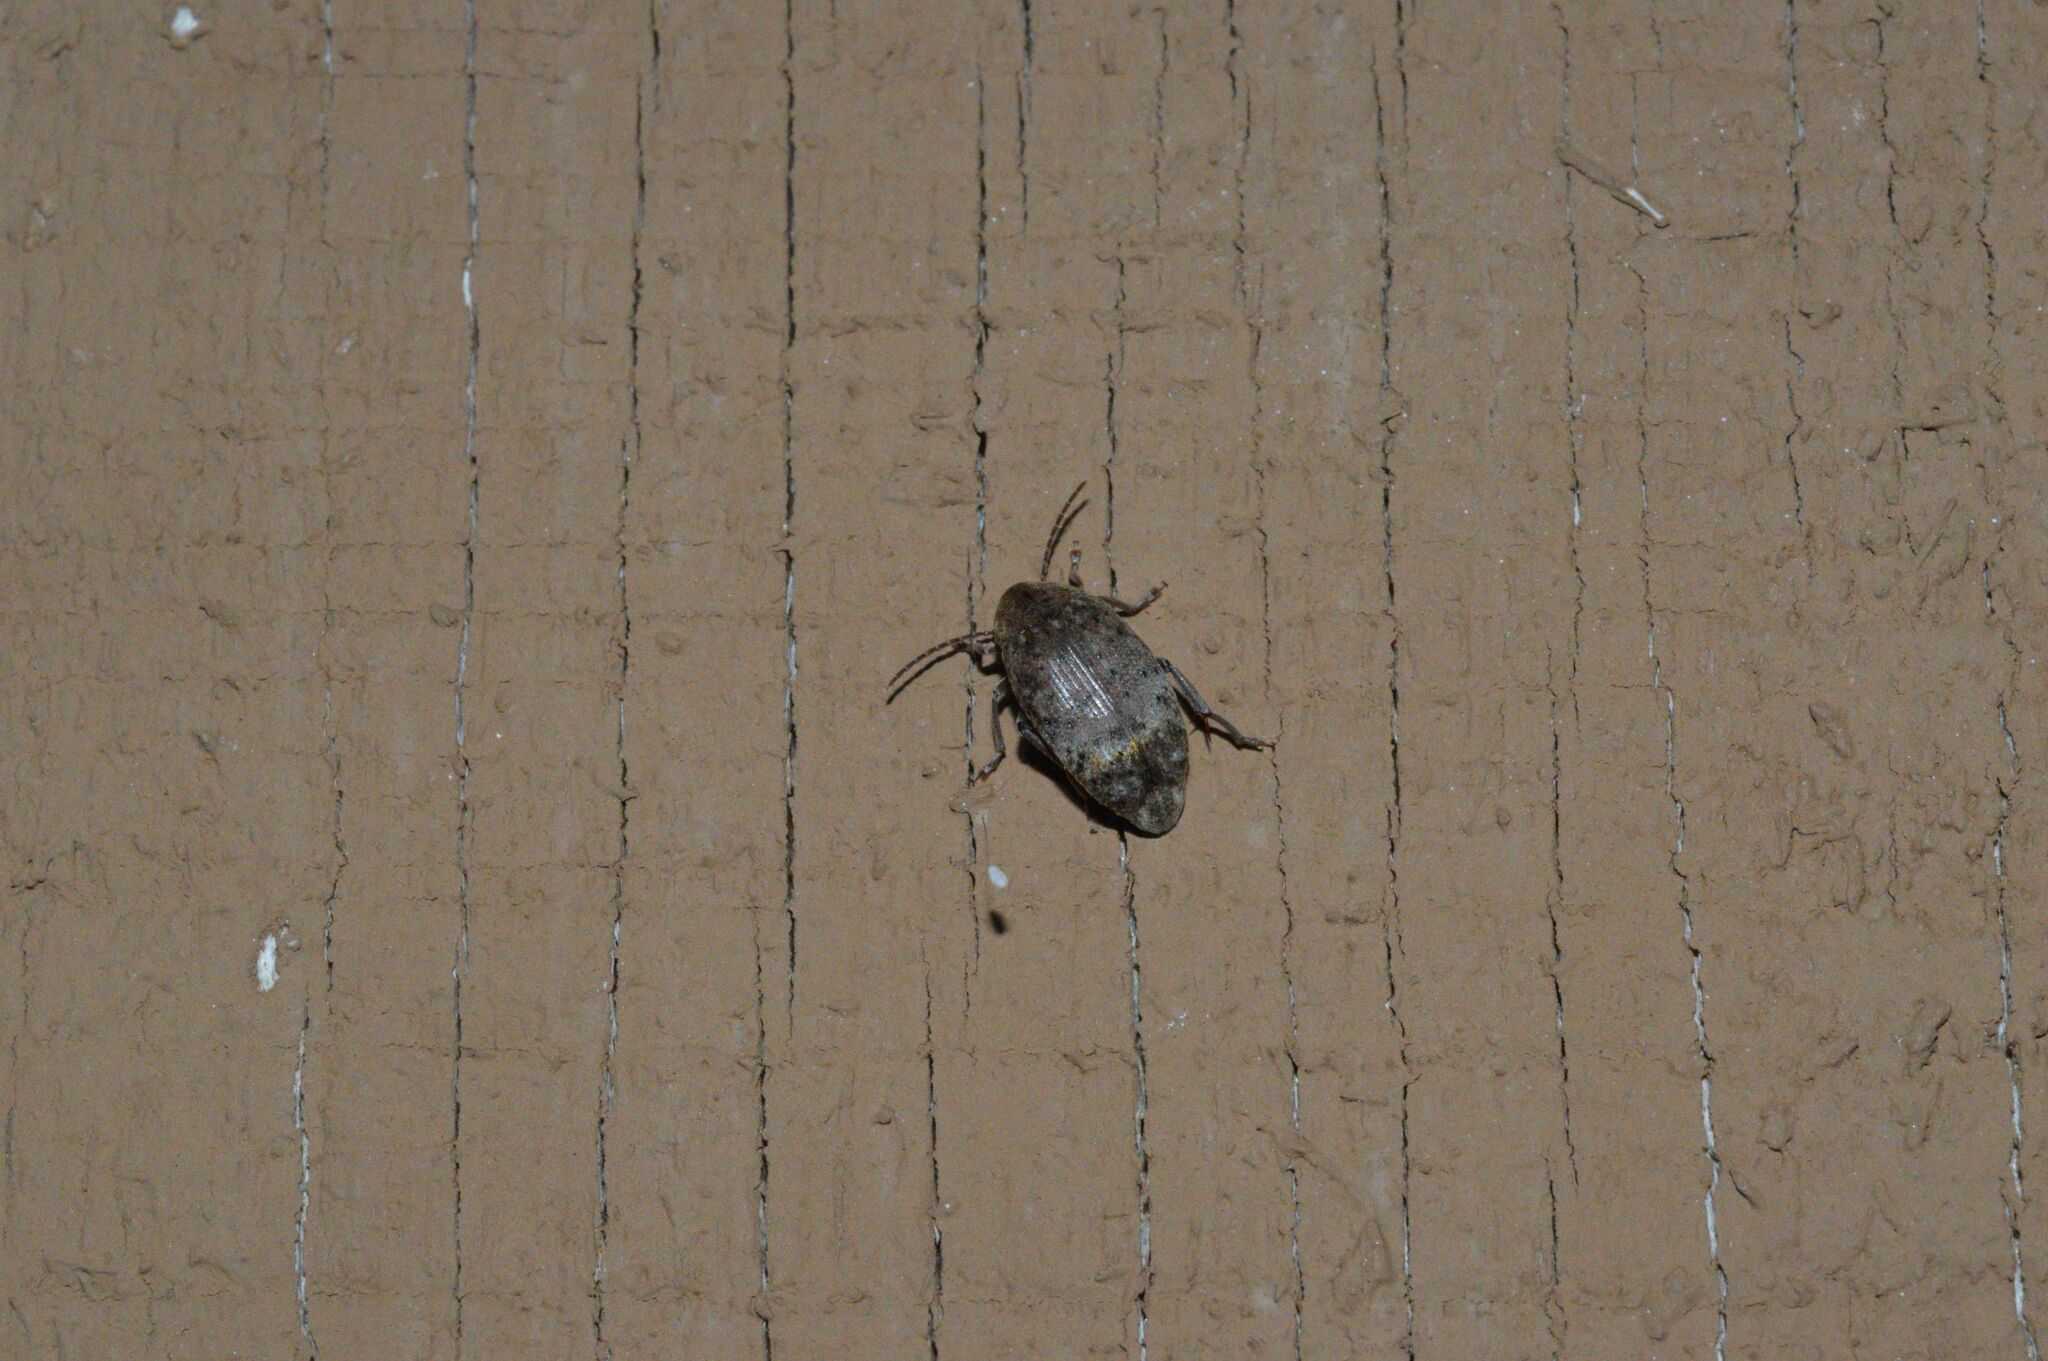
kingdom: Animalia
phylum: Arthropoda
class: Insecta
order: Coleoptera
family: Chrysomelidae
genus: Amblycerus
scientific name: Amblycerus robiniae
